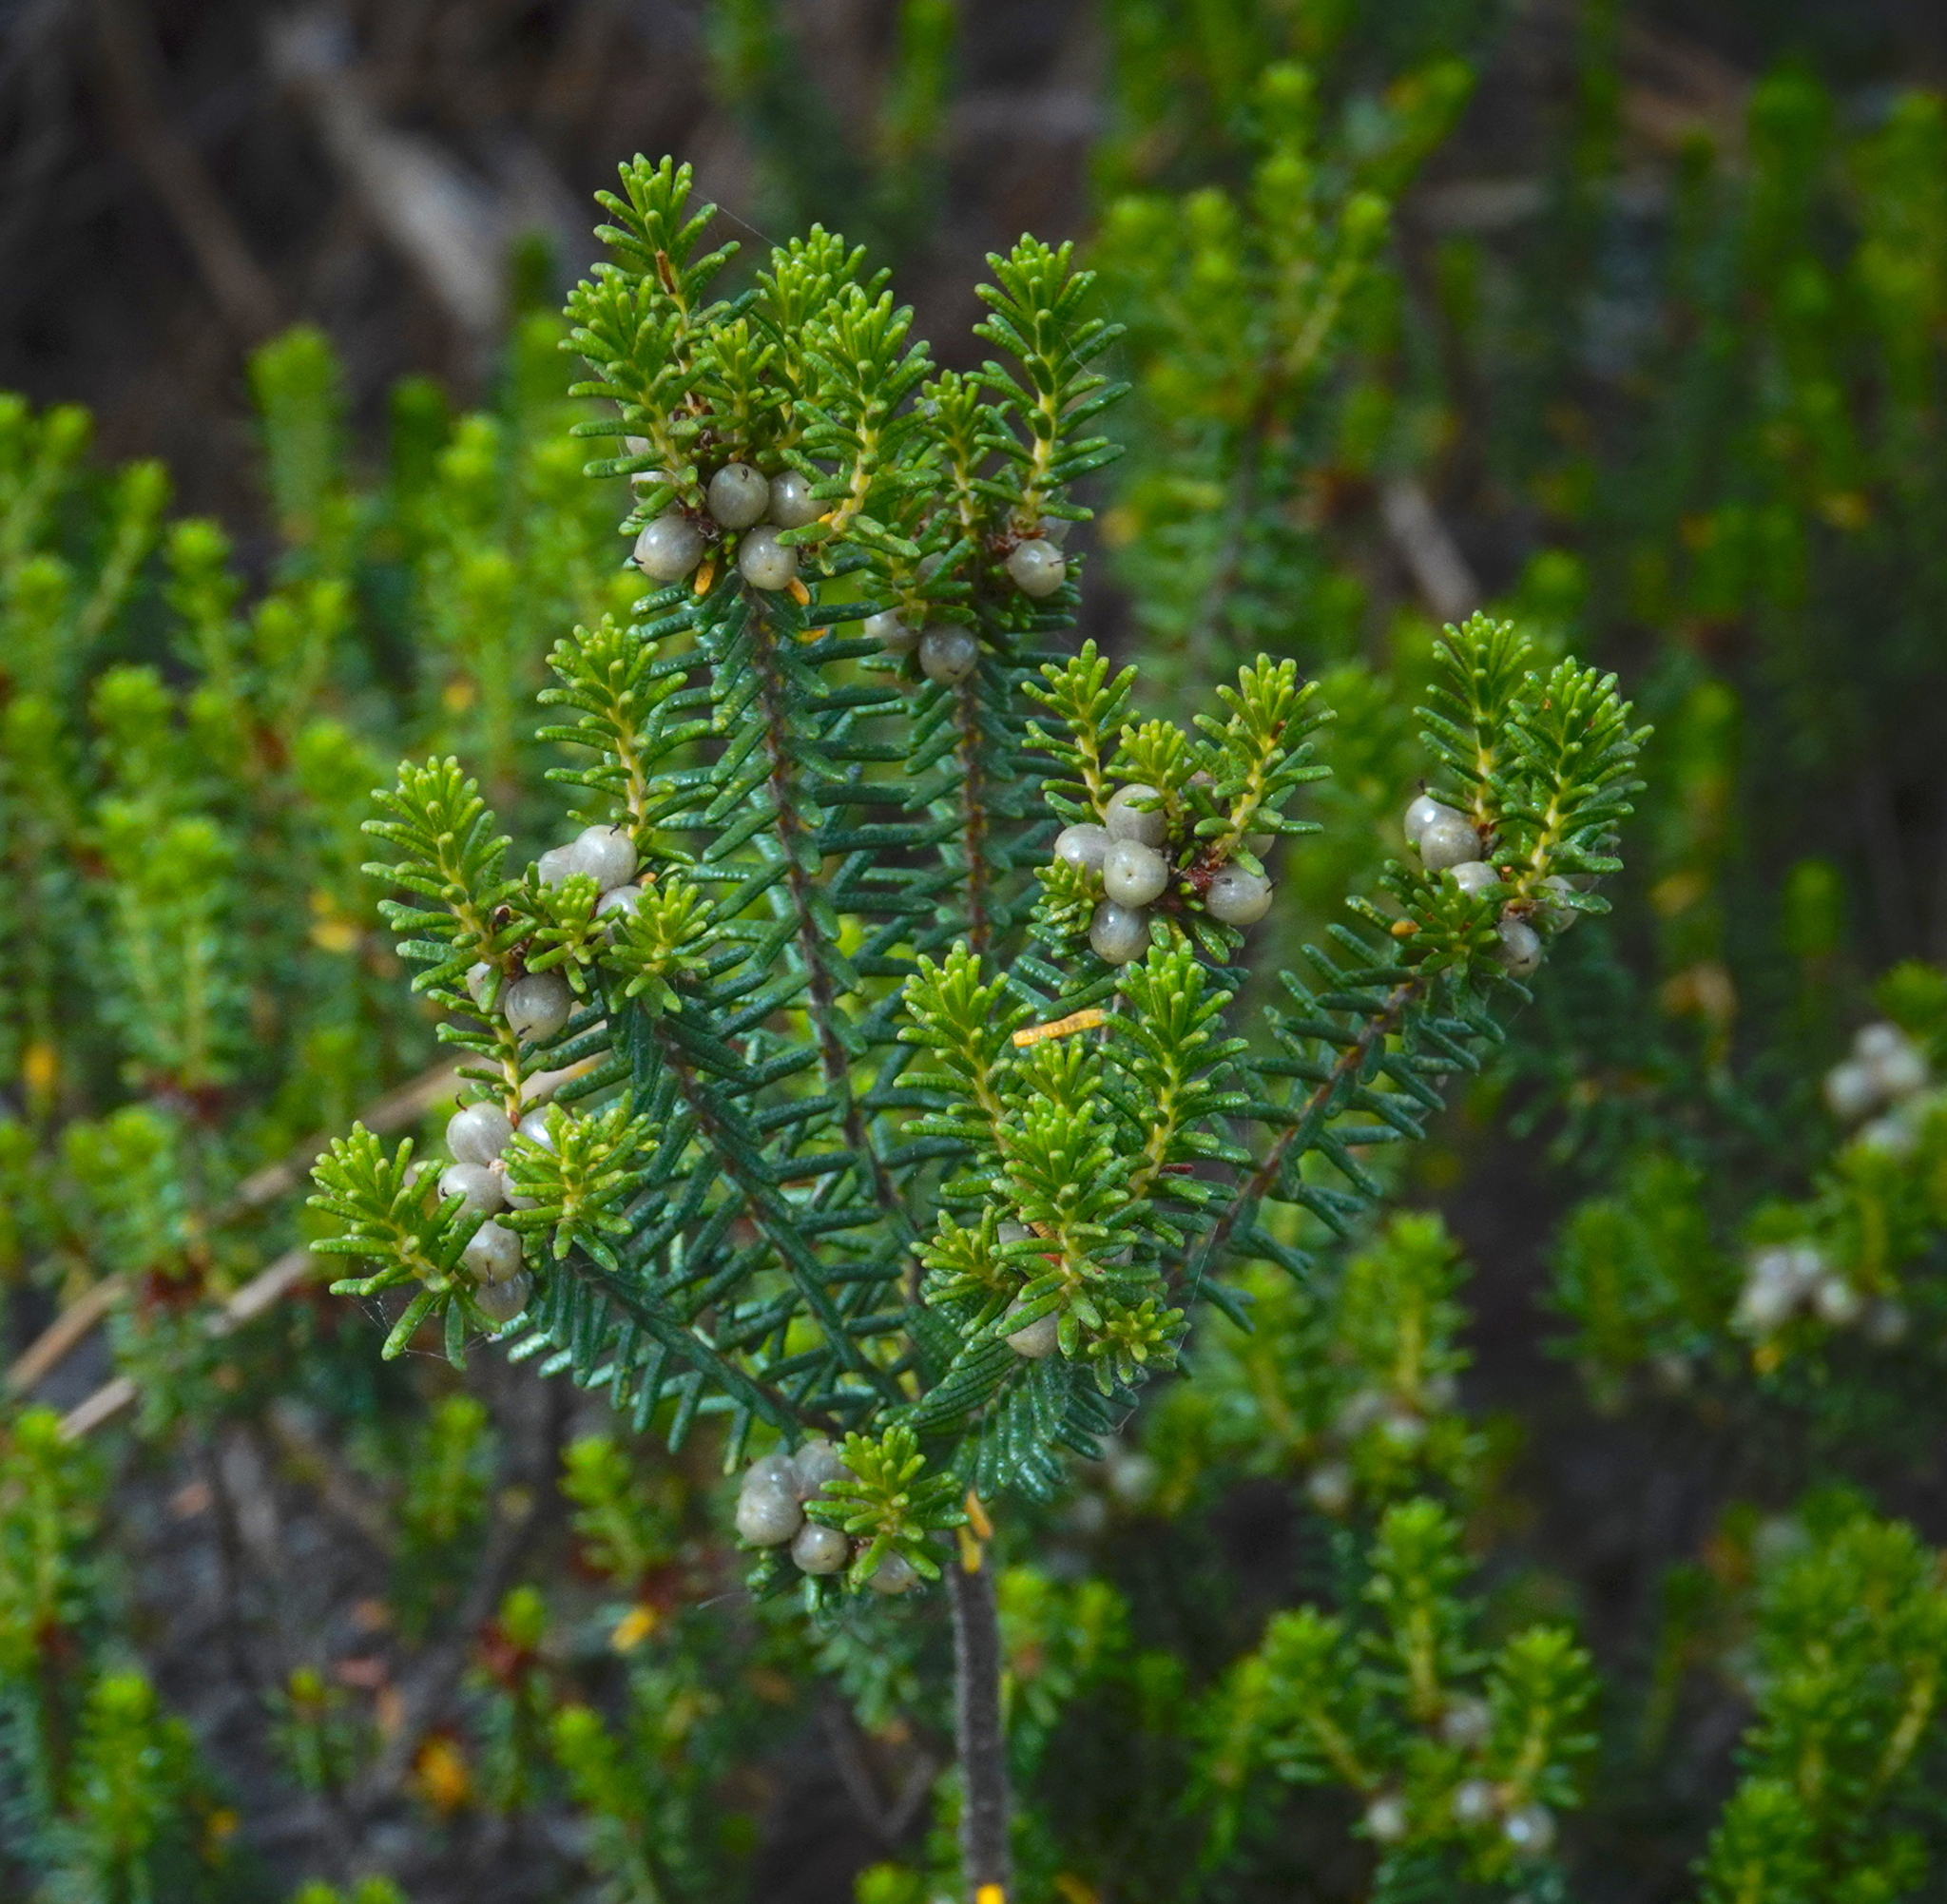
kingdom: Plantae
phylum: Tracheophyta
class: Magnoliopsida
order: Ericales
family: Ericaceae
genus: Corema
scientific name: Corema album
